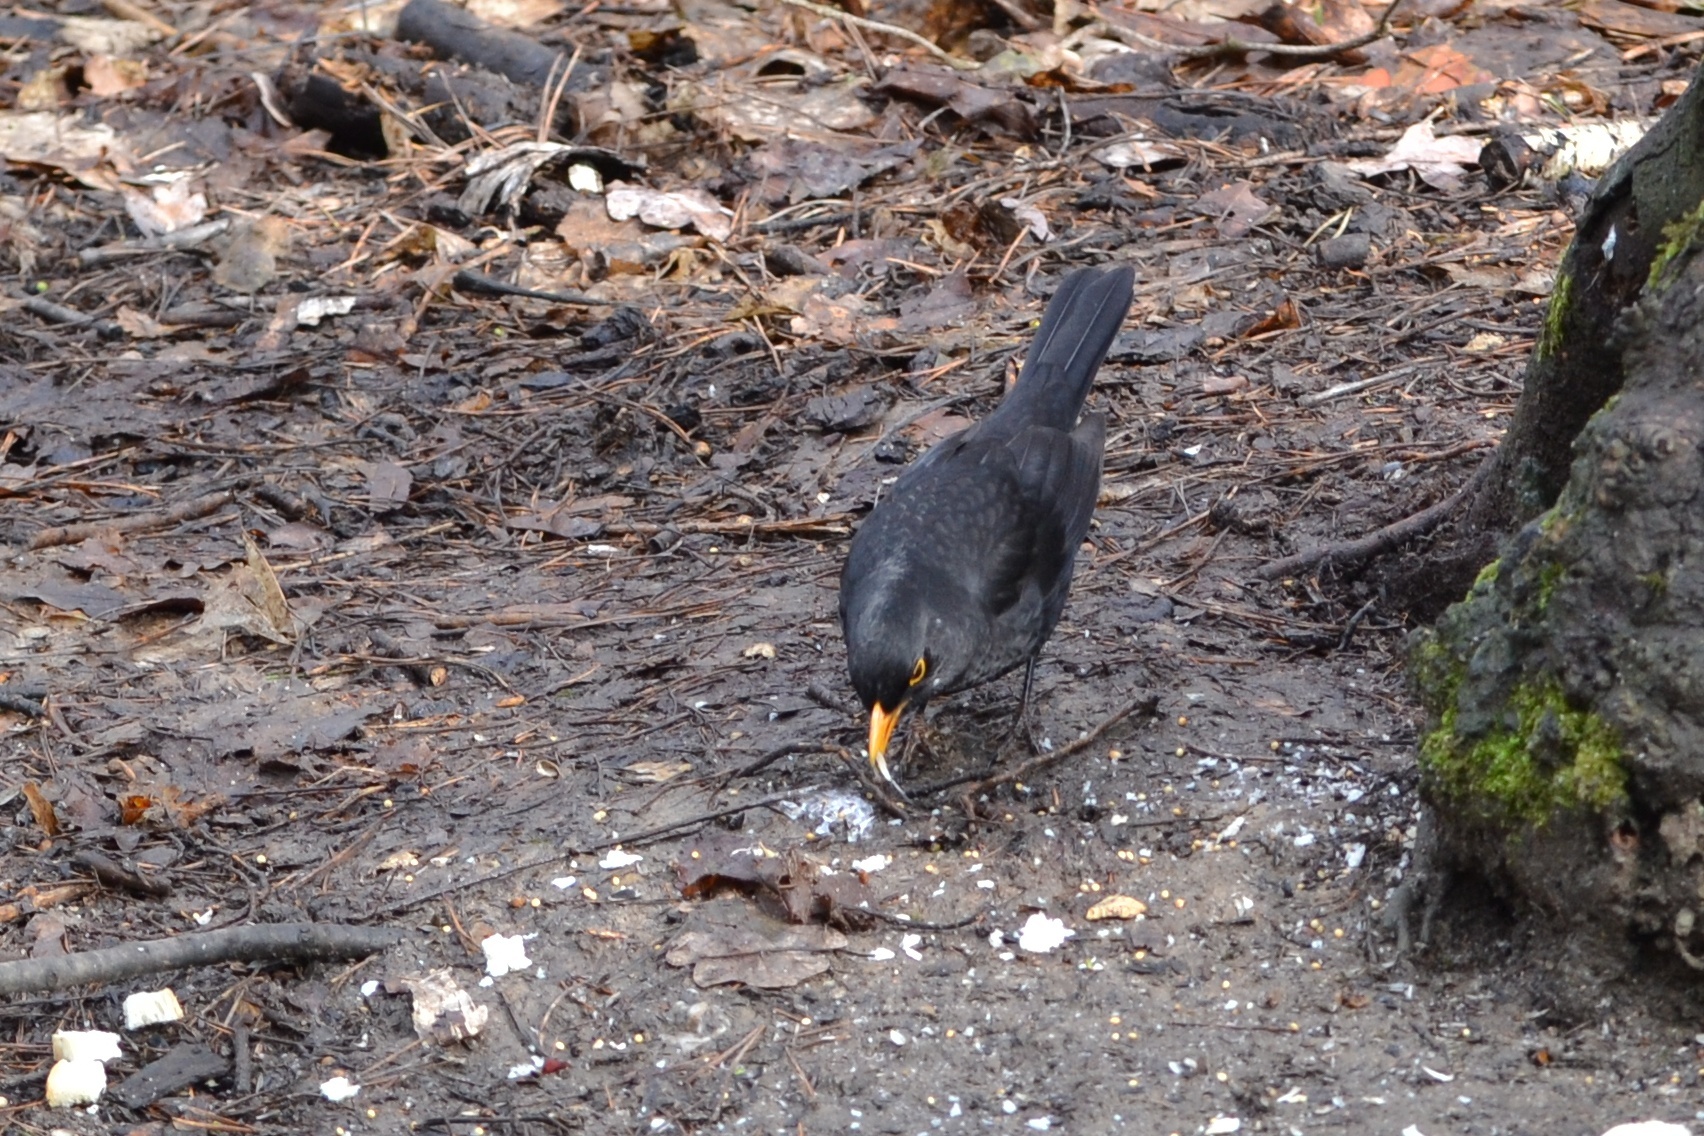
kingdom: Animalia
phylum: Chordata
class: Aves
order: Passeriformes
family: Turdidae
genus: Turdus
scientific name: Turdus merula
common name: Common blackbird
